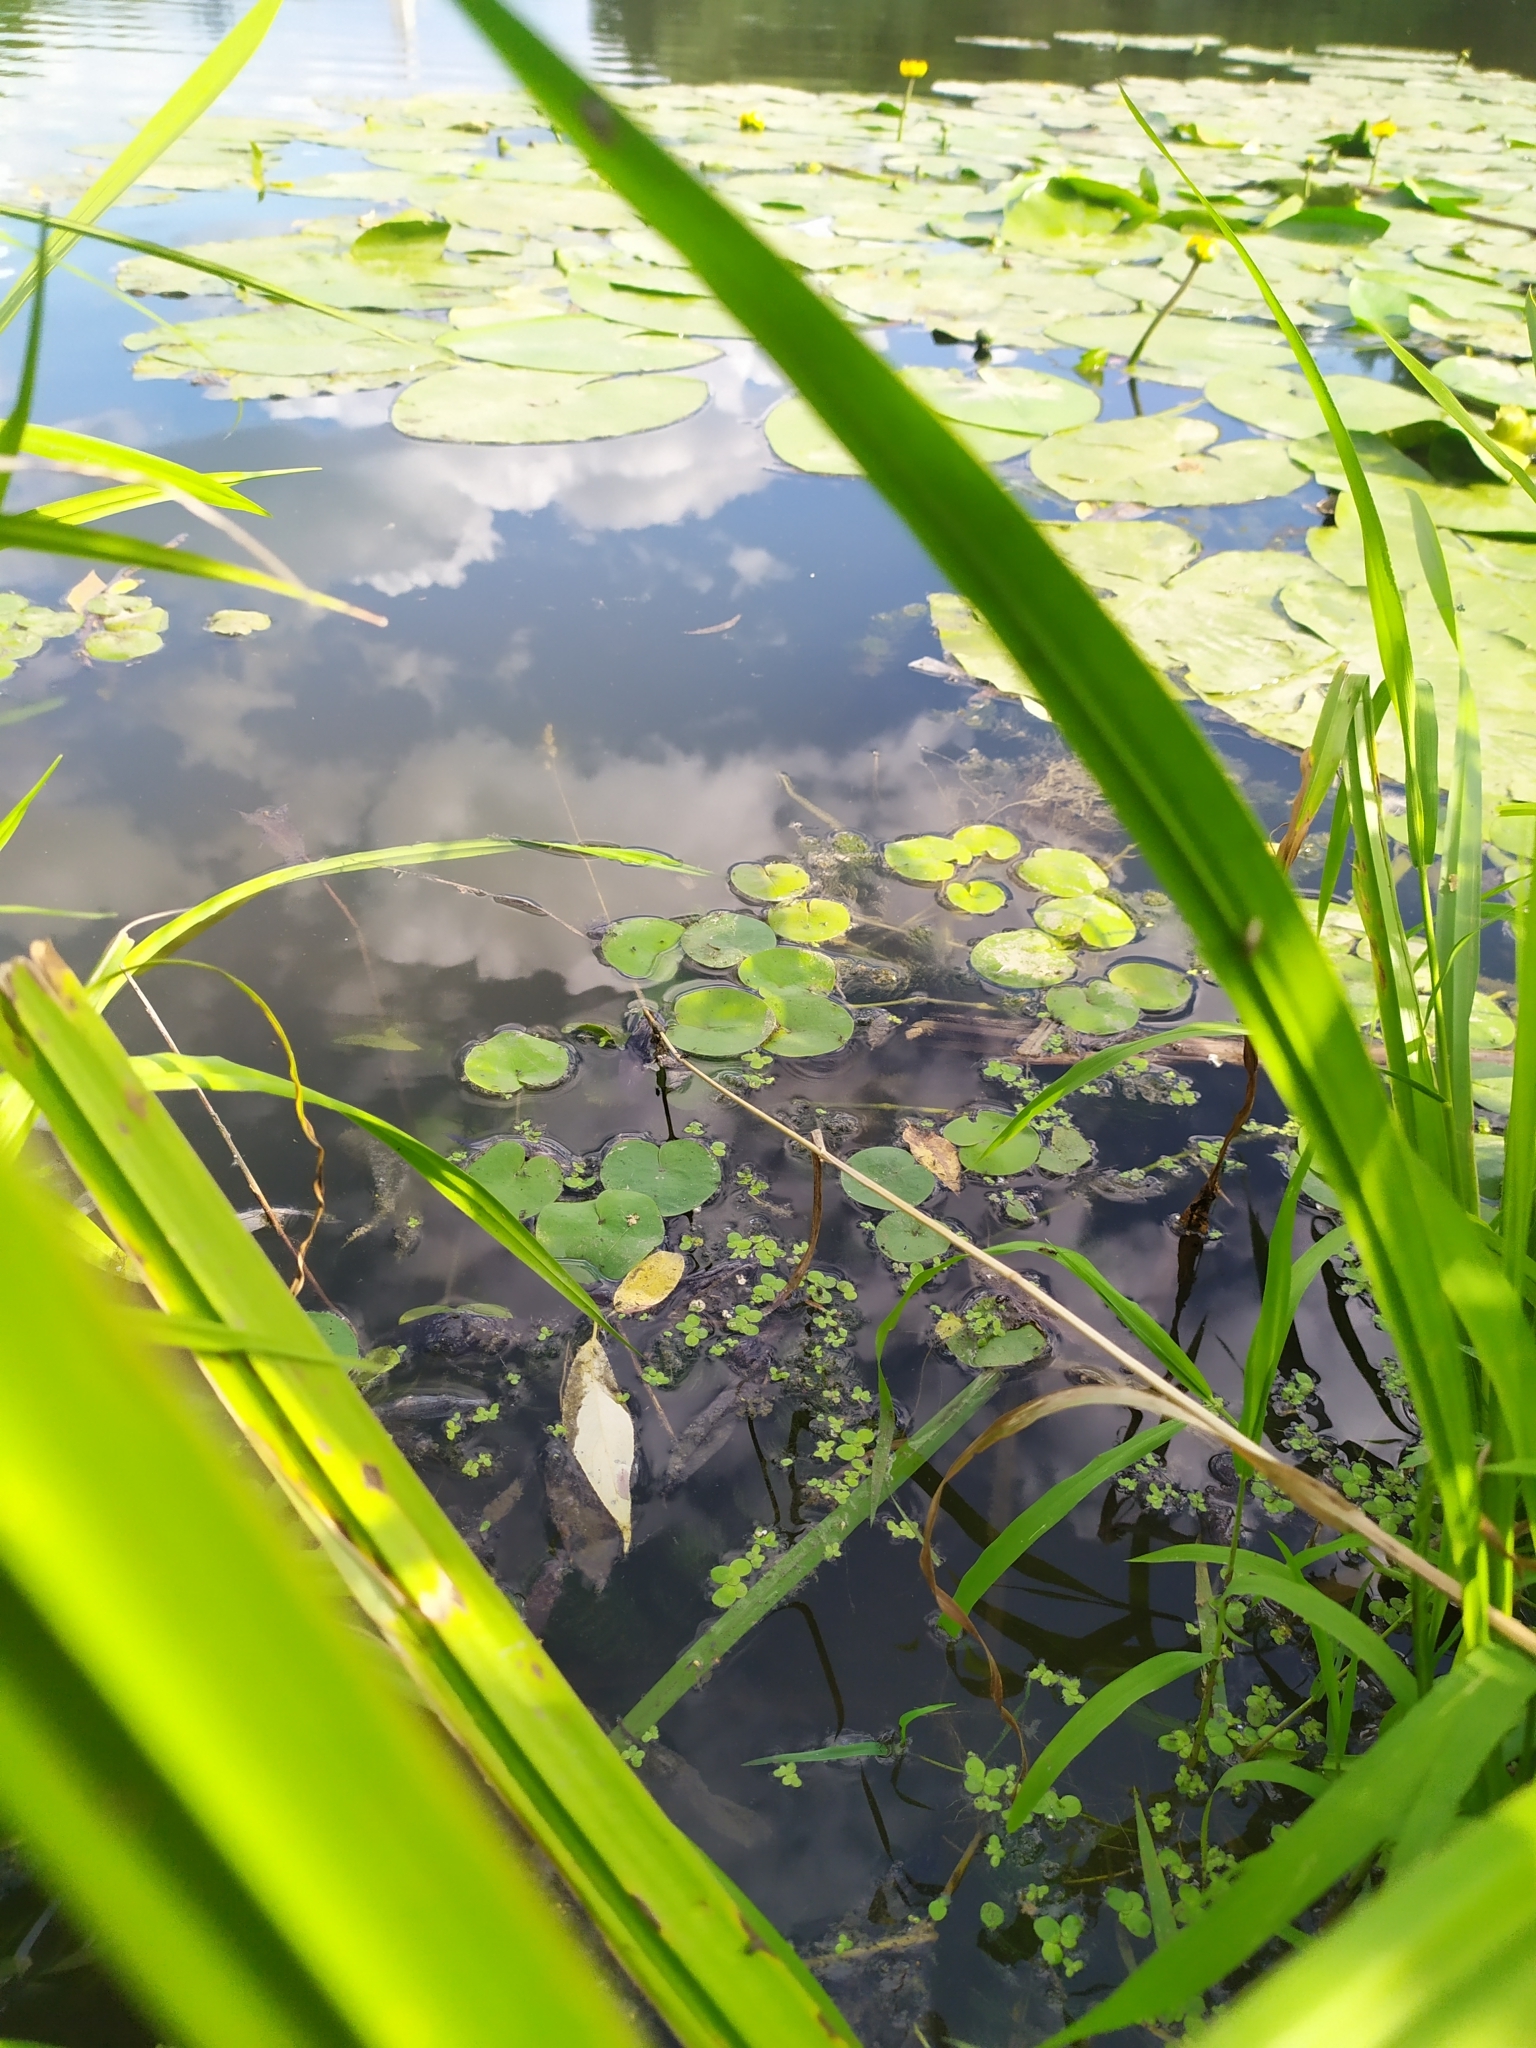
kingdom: Plantae
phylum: Tracheophyta
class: Liliopsida
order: Alismatales
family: Hydrocharitaceae
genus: Hydrocharis
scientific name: Hydrocharis morsus-ranae
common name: Frogbit
